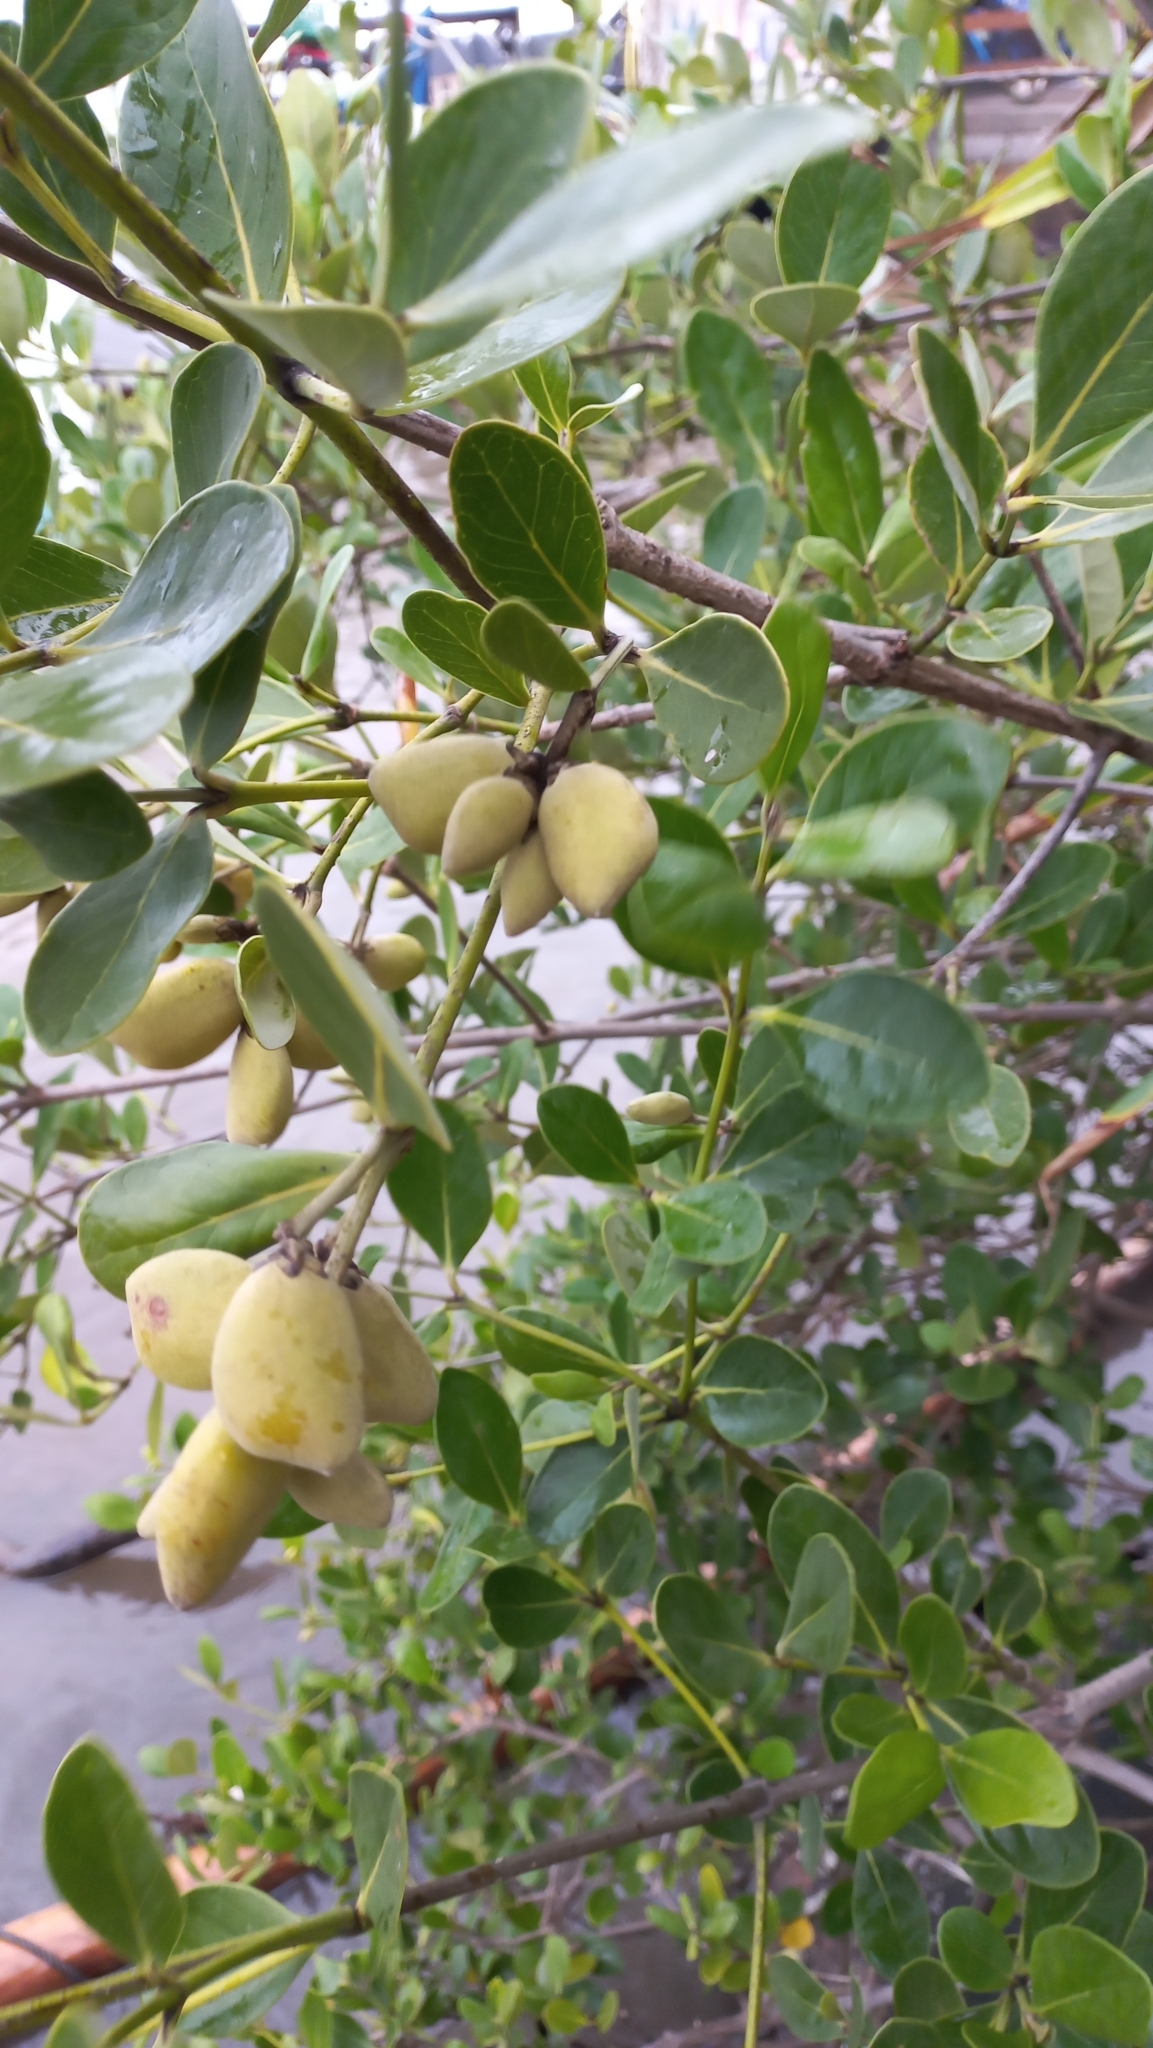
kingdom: Plantae
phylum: Tracheophyta
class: Magnoliopsida
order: Lamiales
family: Acanthaceae
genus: Avicennia
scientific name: Avicennia schaueriana
